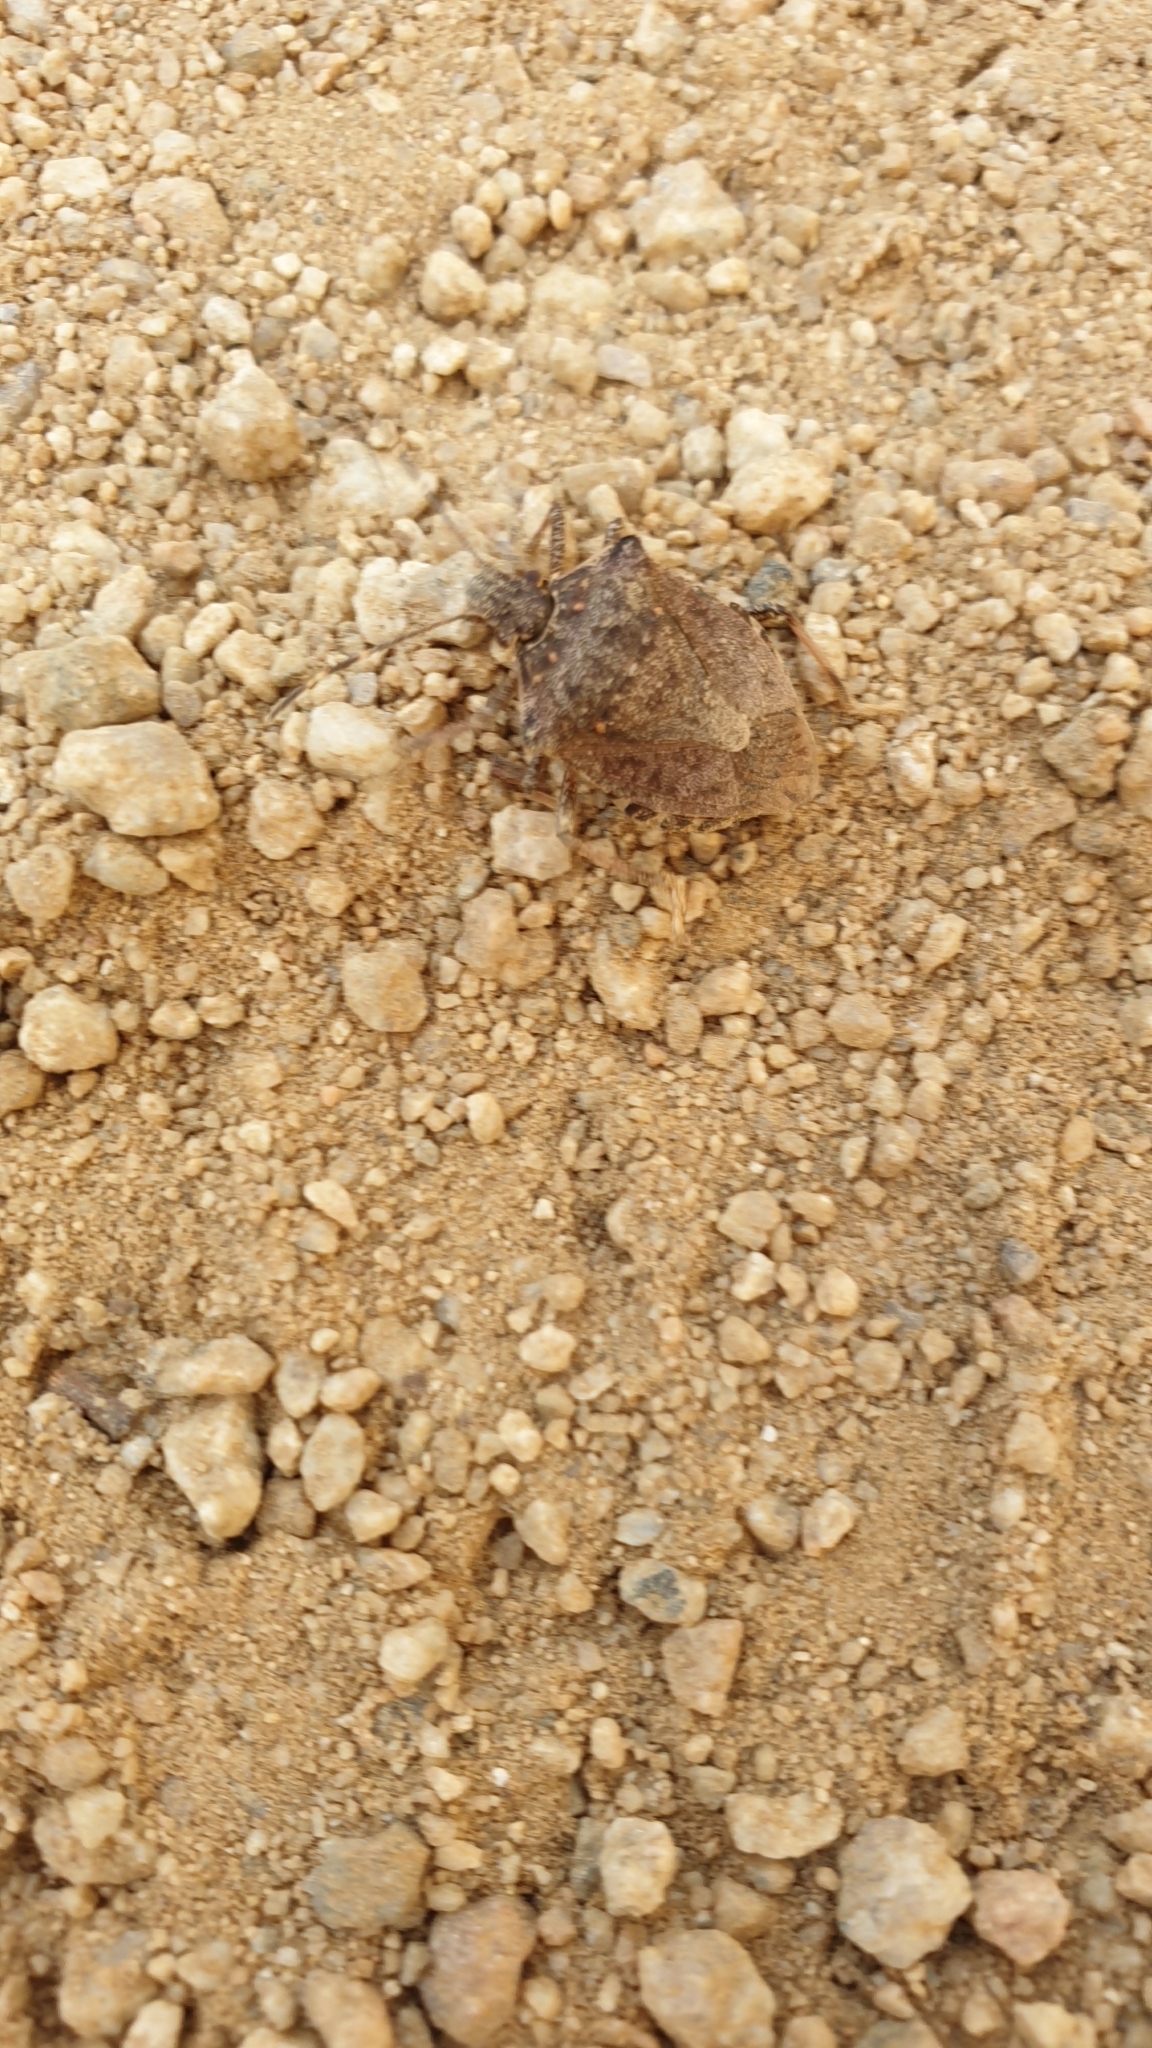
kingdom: Animalia
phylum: Arthropoda
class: Insecta
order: Hemiptera
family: Pentatomidae
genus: Halyomorpha
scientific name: Halyomorpha halys
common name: Brown marmorated stink bug
